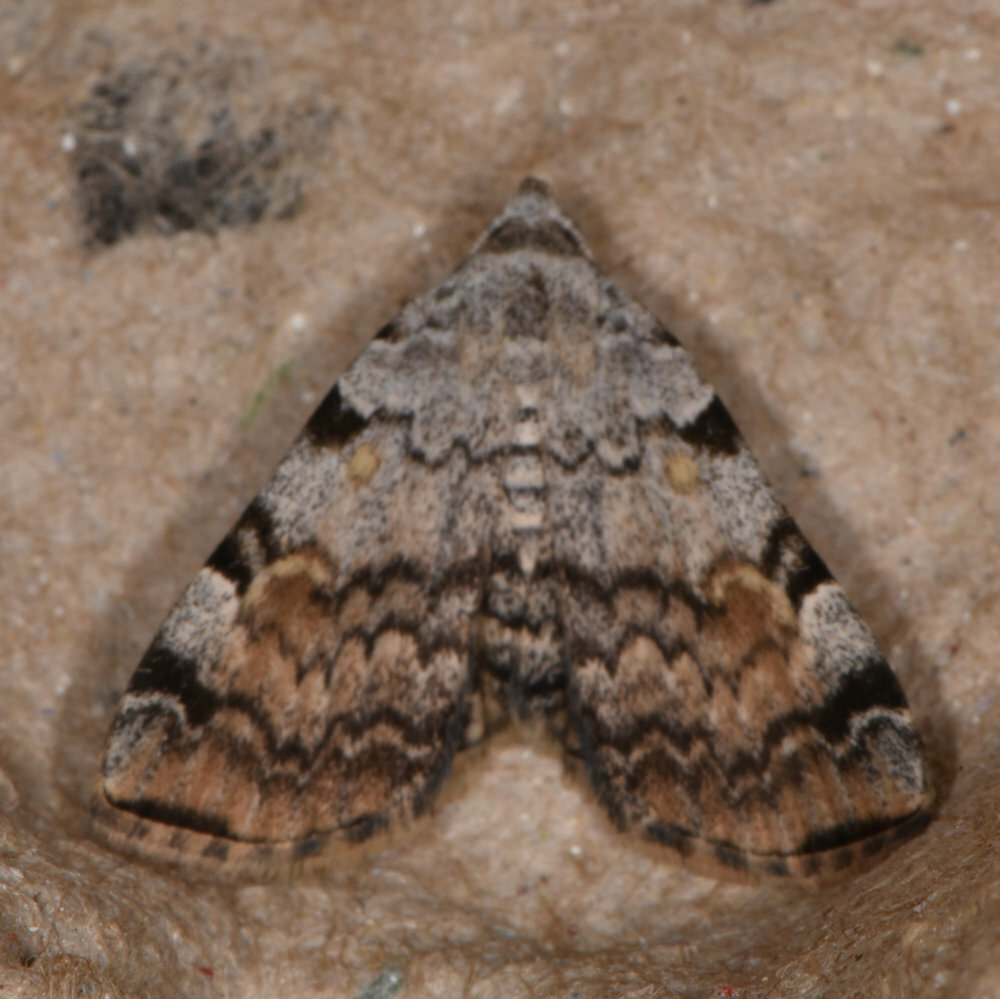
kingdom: Animalia
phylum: Arthropoda
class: Insecta
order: Lepidoptera
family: Erebidae
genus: Idia
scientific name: Idia americalis
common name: American idia moth
